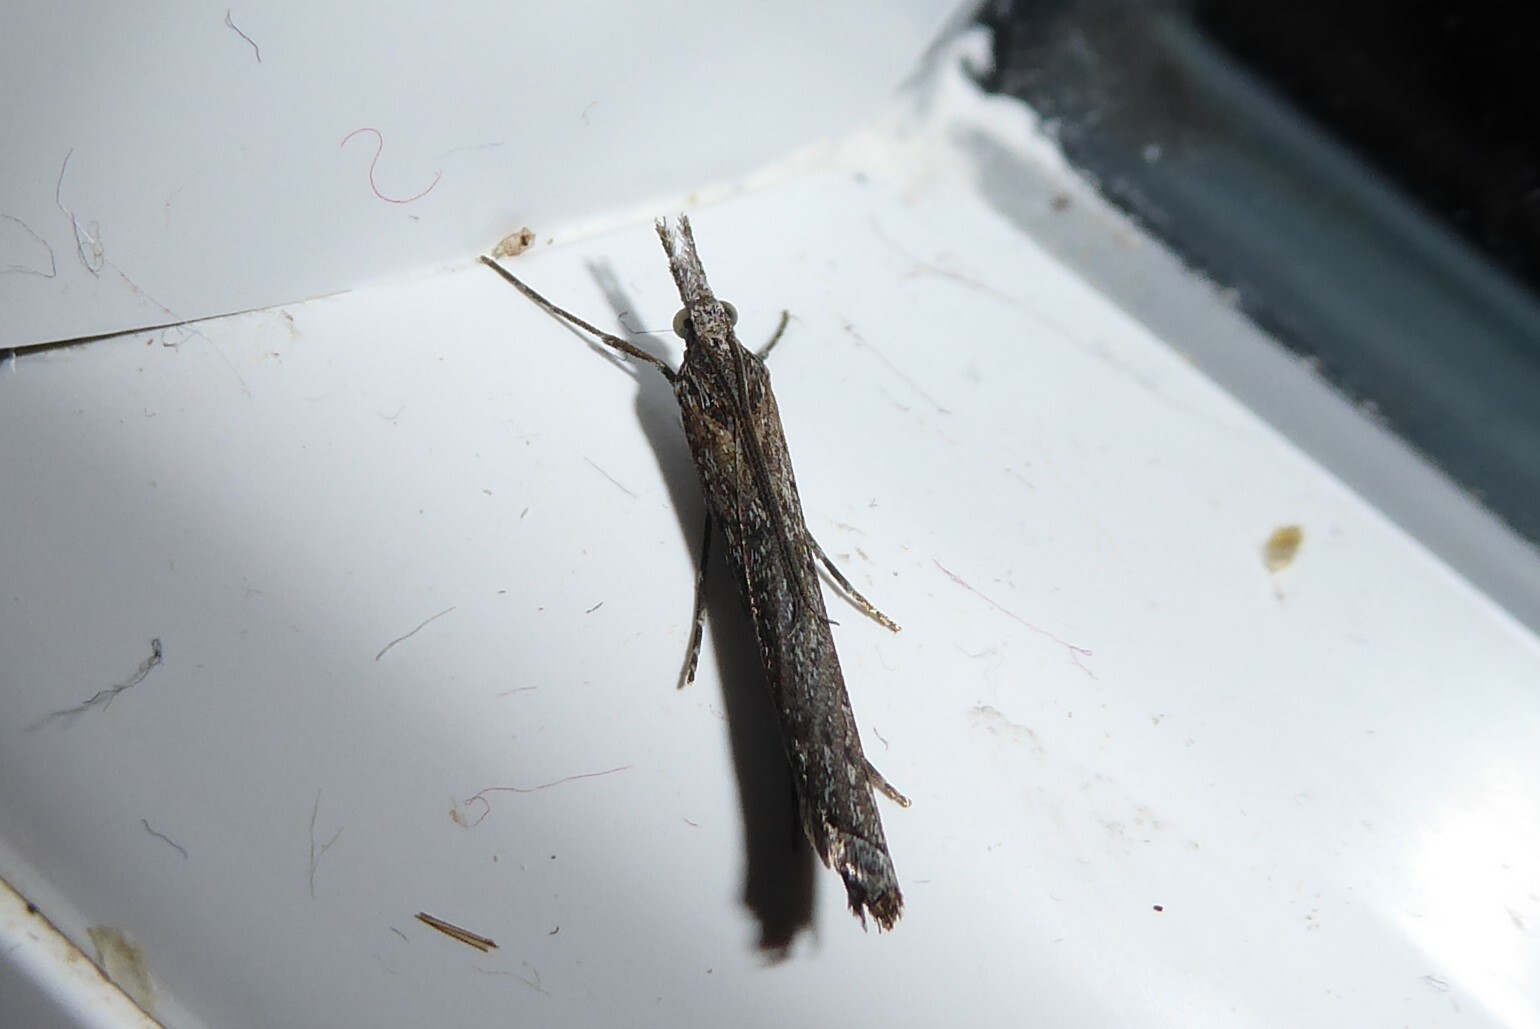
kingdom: Animalia
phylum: Arthropoda
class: Insecta
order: Lepidoptera
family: Crambidae
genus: Orocrambus
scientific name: Orocrambus cyclopicus
